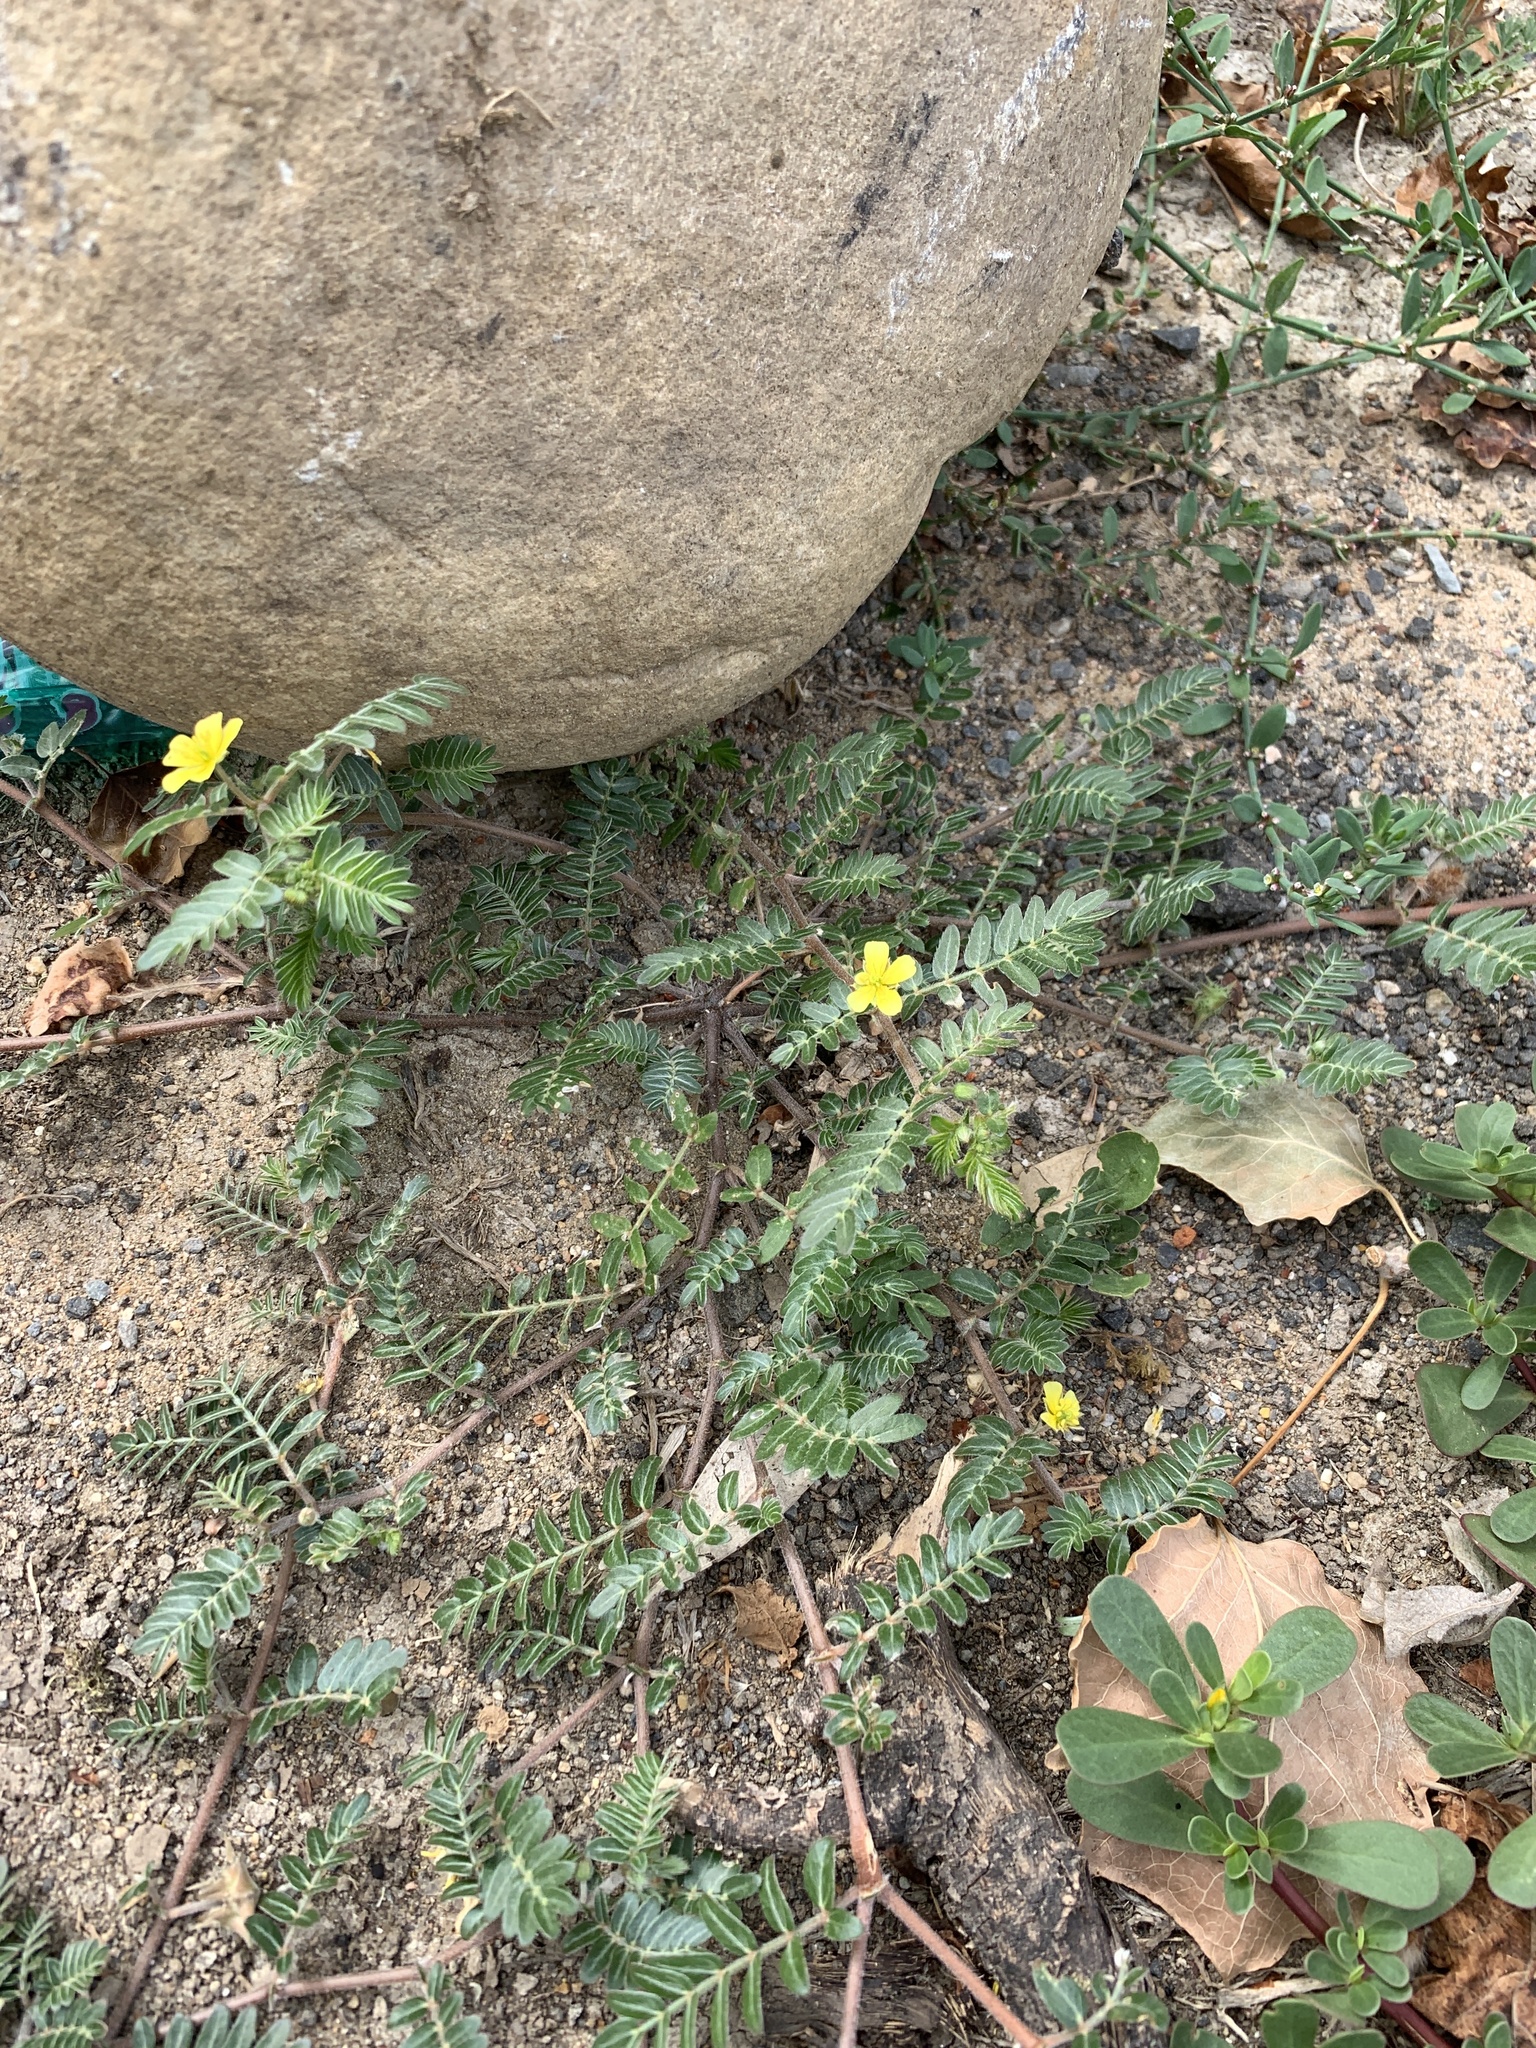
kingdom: Plantae
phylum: Tracheophyta
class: Magnoliopsida
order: Zygophyllales
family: Zygophyllaceae
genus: Tribulus
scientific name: Tribulus terrestris
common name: Puncturevine
